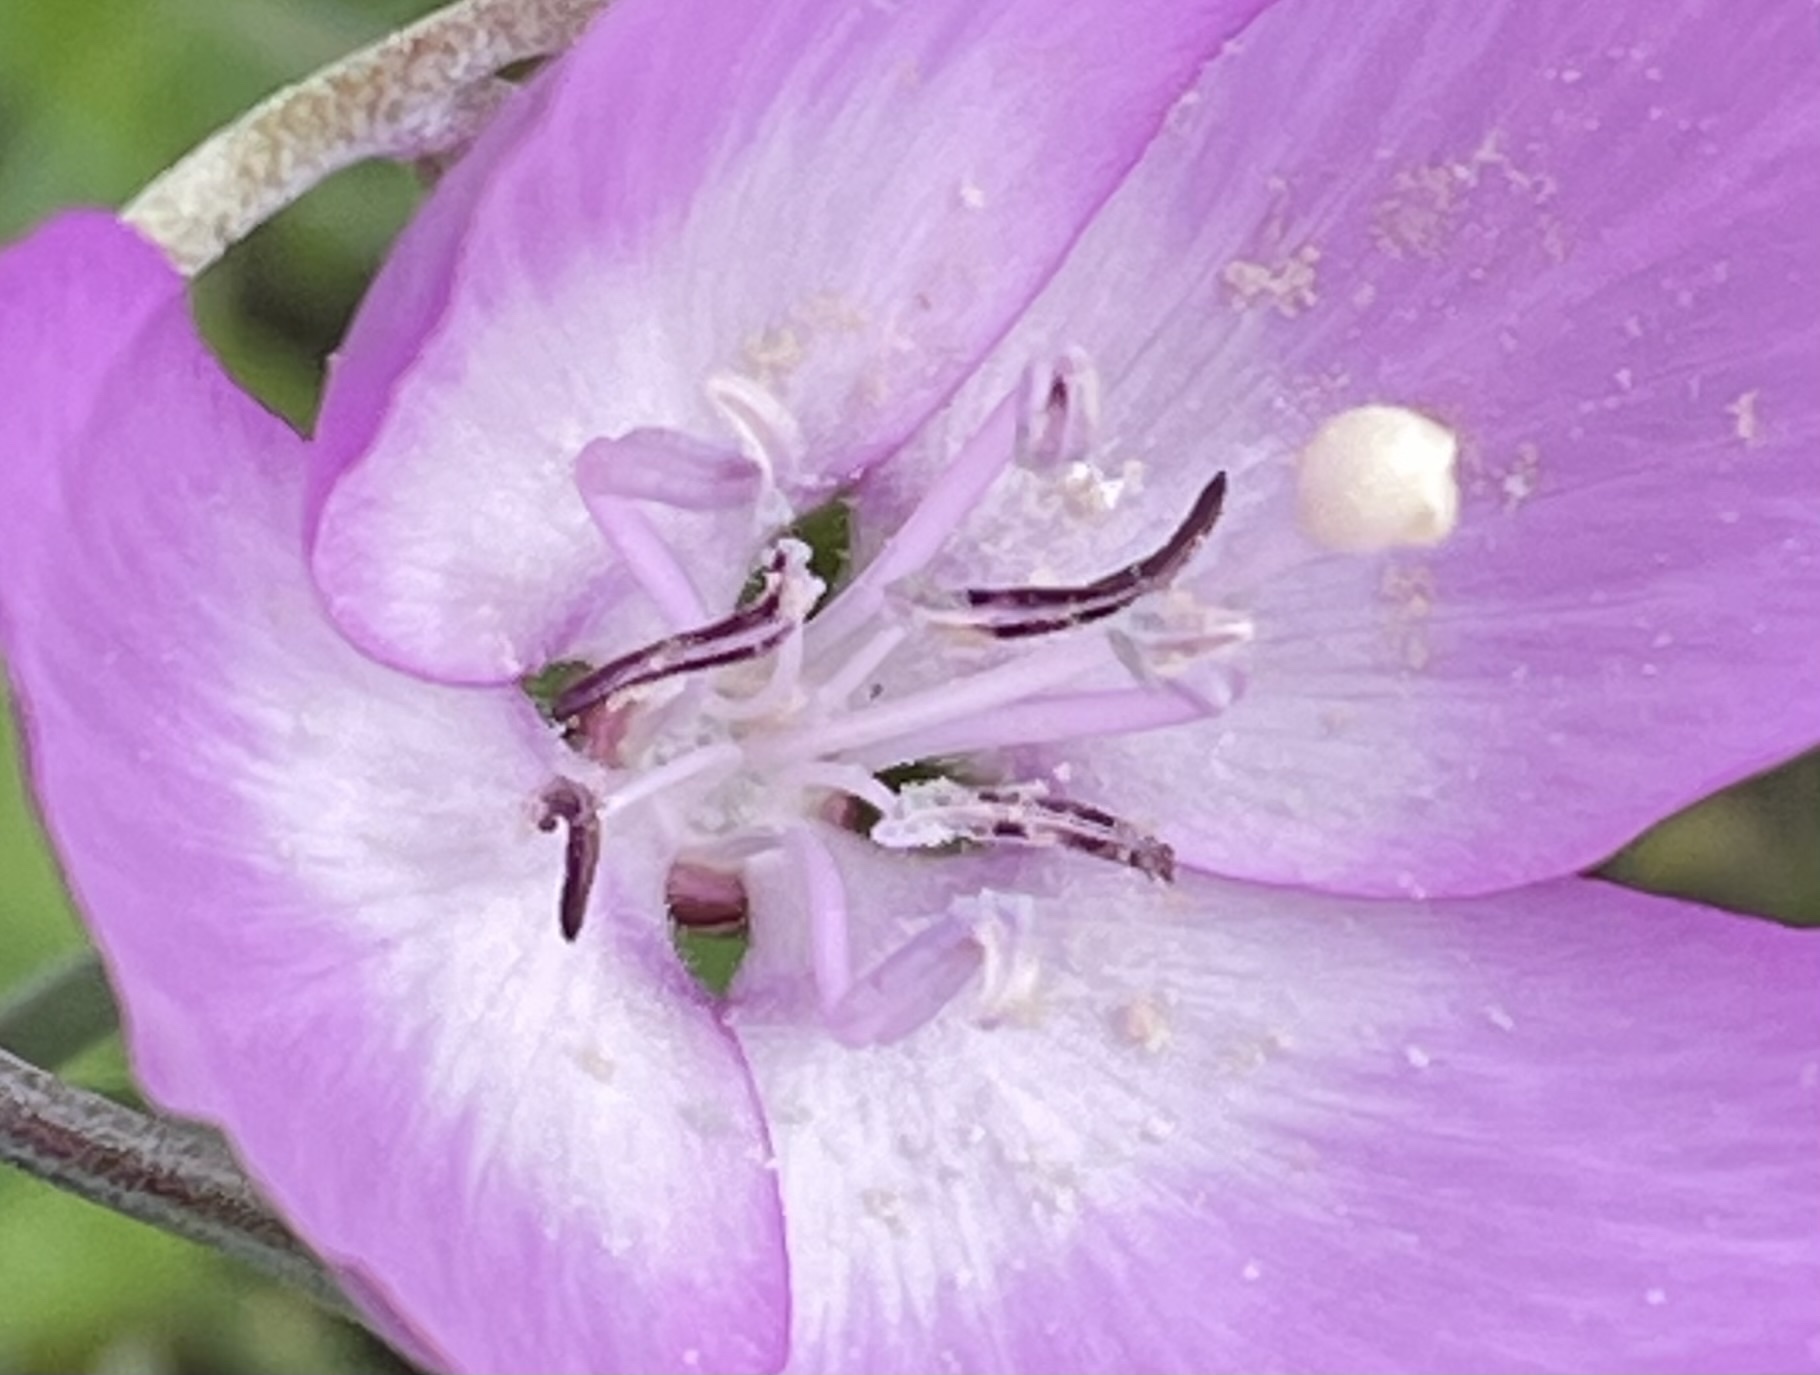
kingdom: Plantae
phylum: Tracheophyta
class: Magnoliopsida
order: Myrtales
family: Onagraceae
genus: Clarkia
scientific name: Clarkia lewisii
